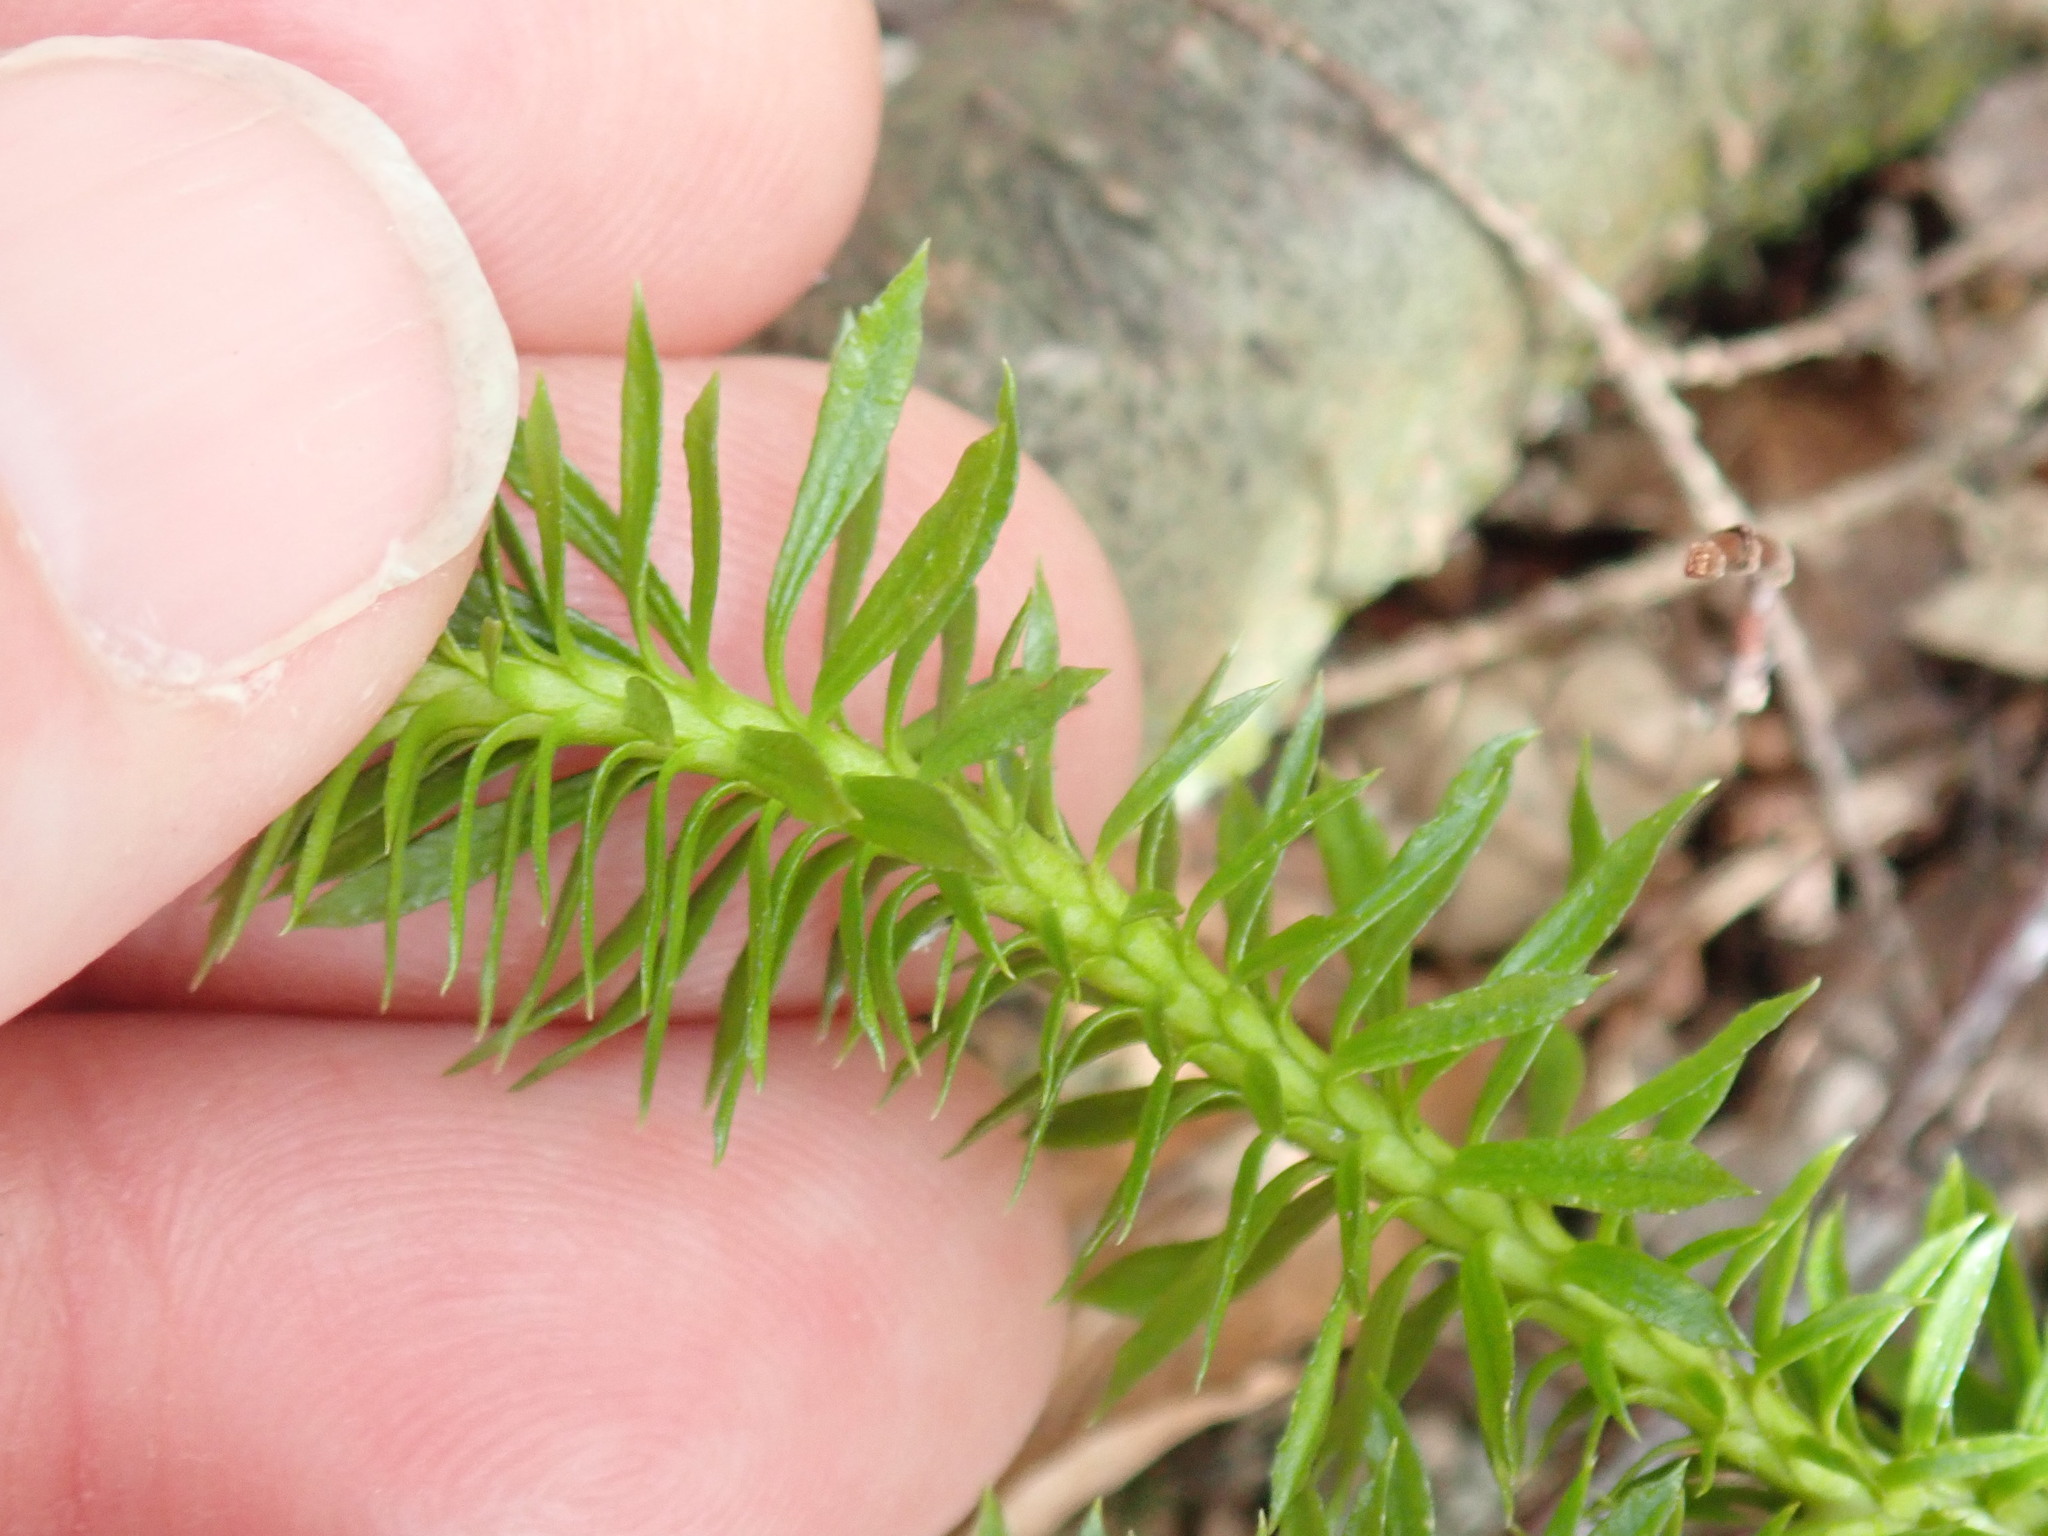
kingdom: Plantae
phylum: Tracheophyta
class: Lycopodiopsida
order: Lycopodiales
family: Lycopodiaceae
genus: Huperzia
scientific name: Huperzia lucidula
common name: Shining clubmoss
